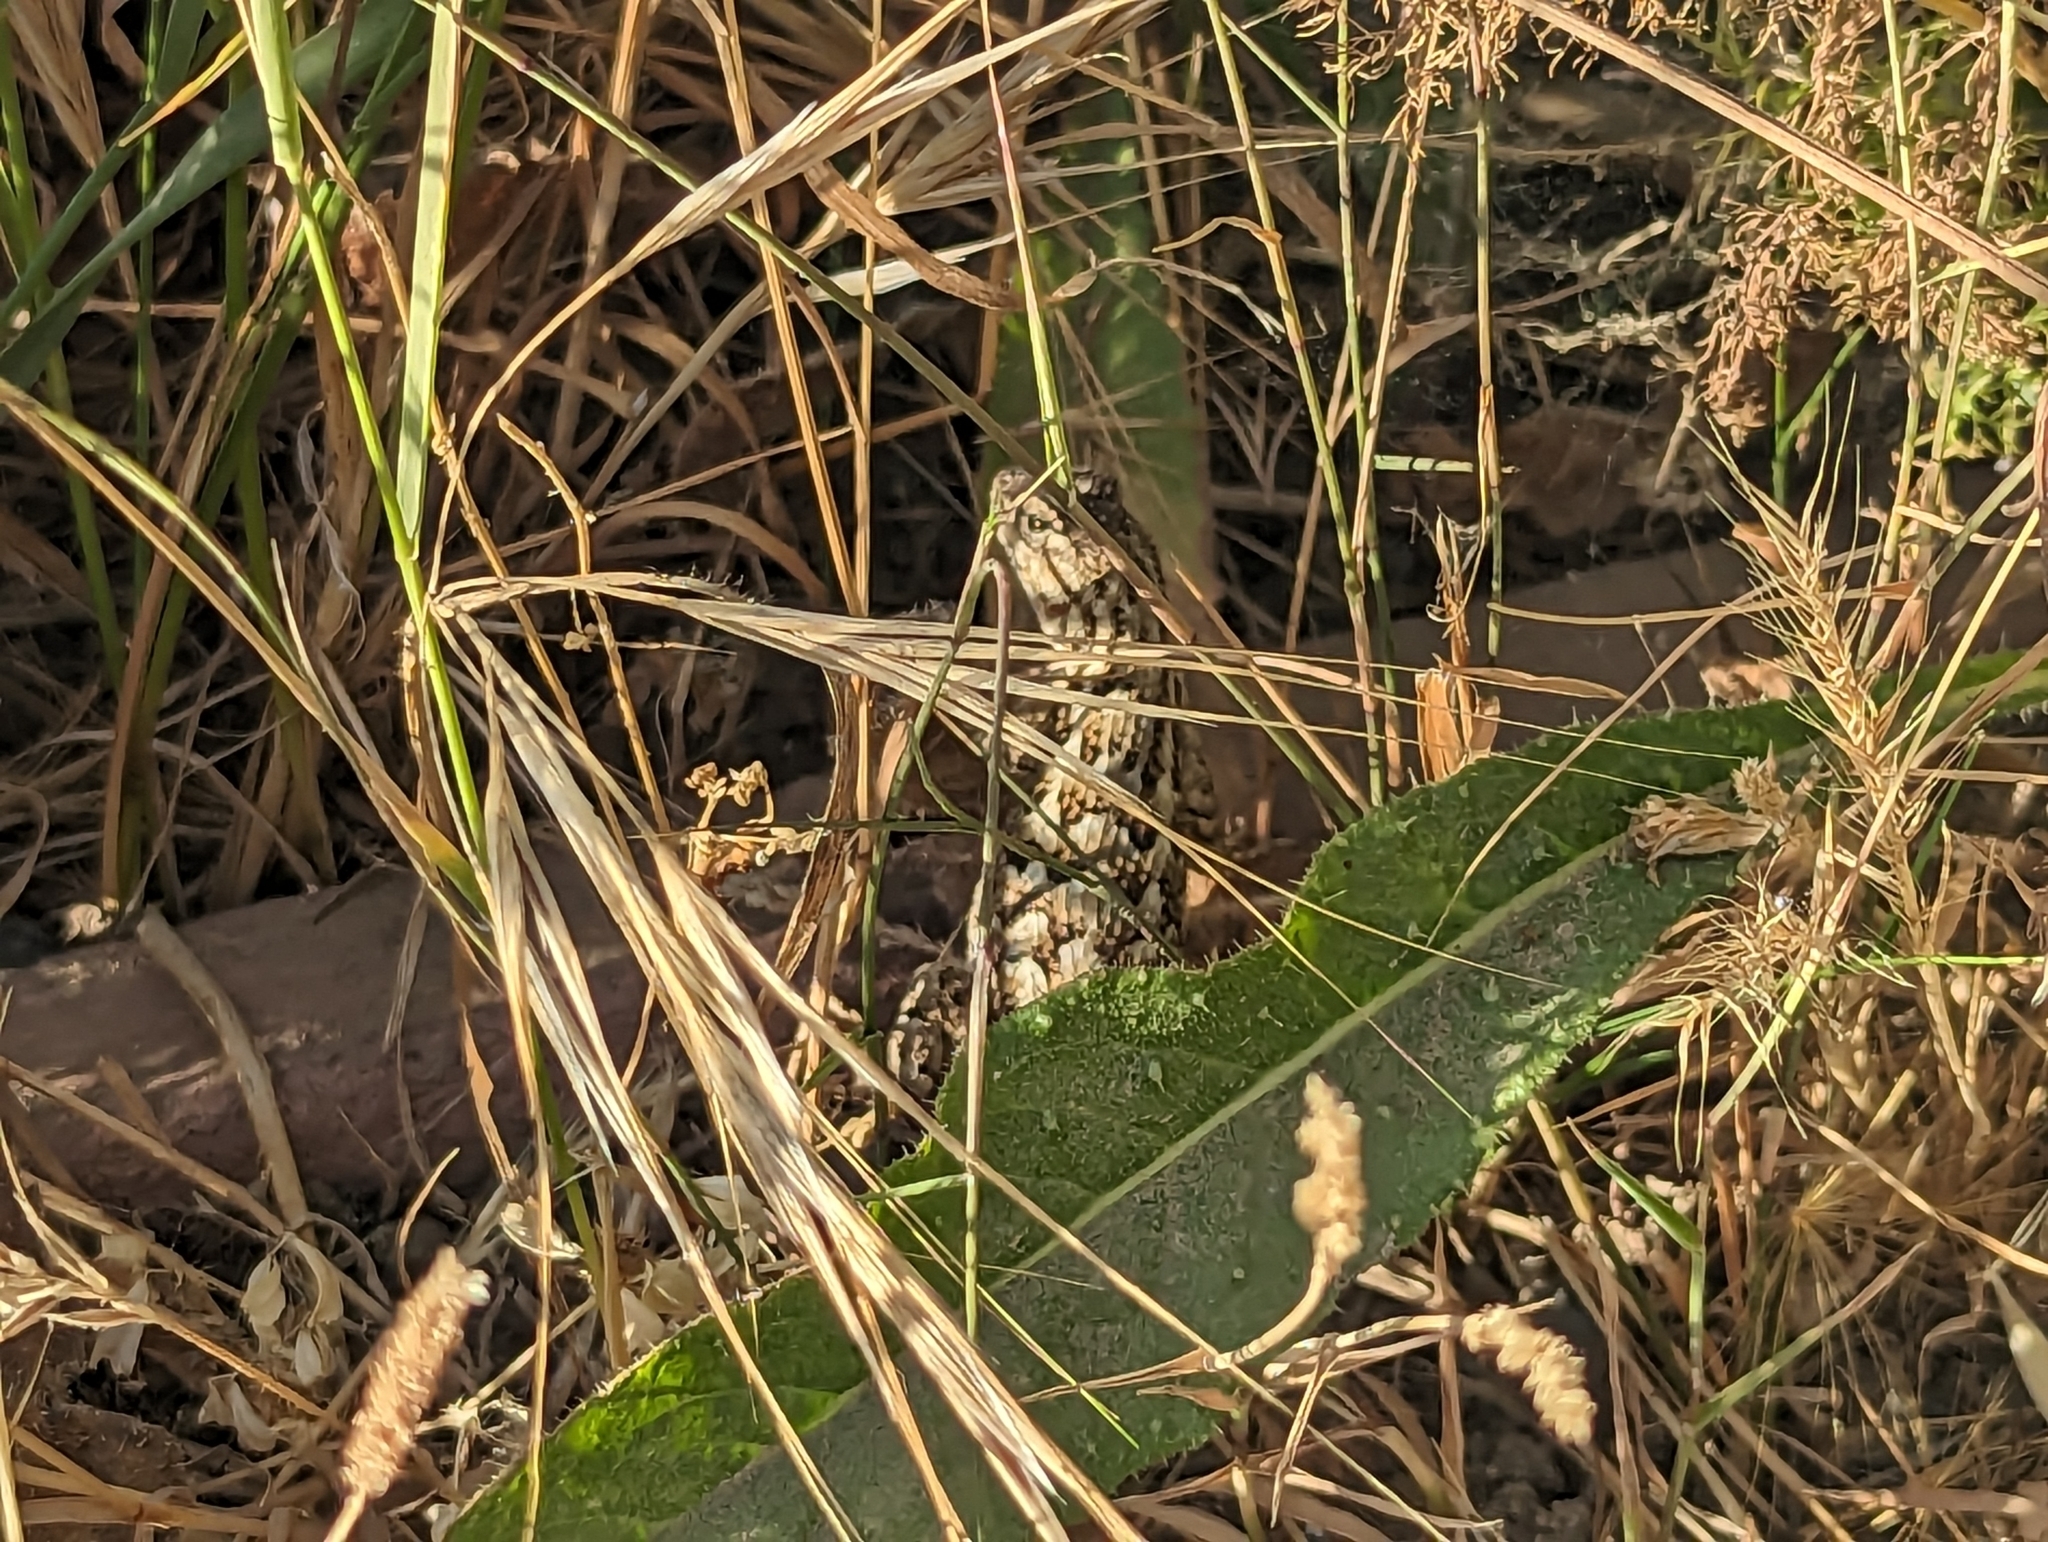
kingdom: Animalia
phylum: Chordata
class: Squamata
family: Phrynosomatidae
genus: Sceloporus
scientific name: Sceloporus occidentalis
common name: Western fence lizard
